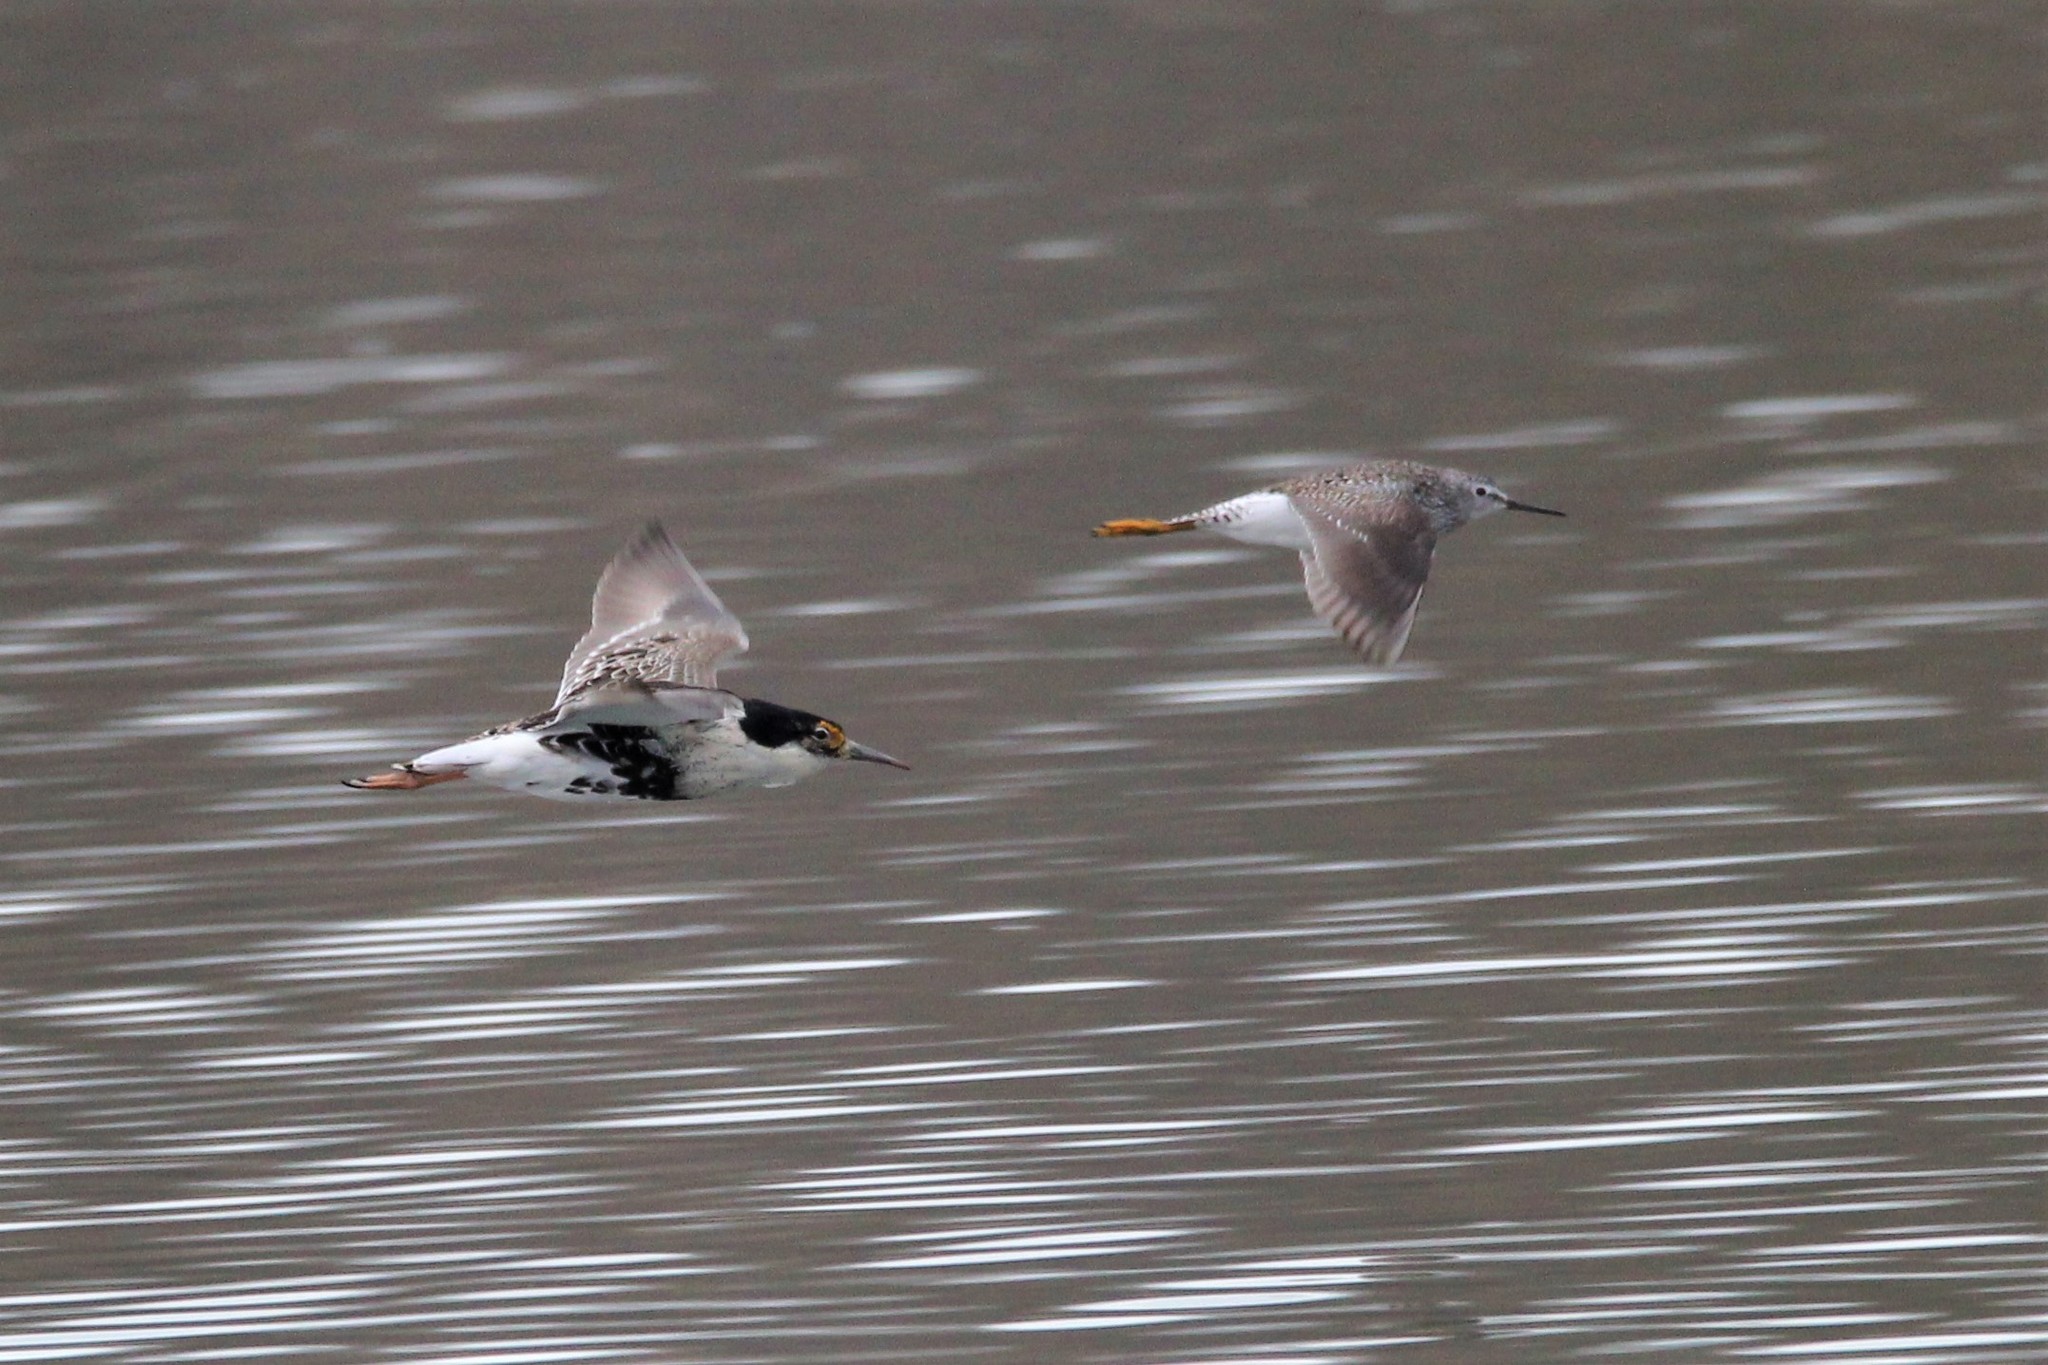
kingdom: Animalia
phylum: Chordata
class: Aves
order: Charadriiformes
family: Scolopacidae
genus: Calidris
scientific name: Calidris pugnax
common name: Ruff
